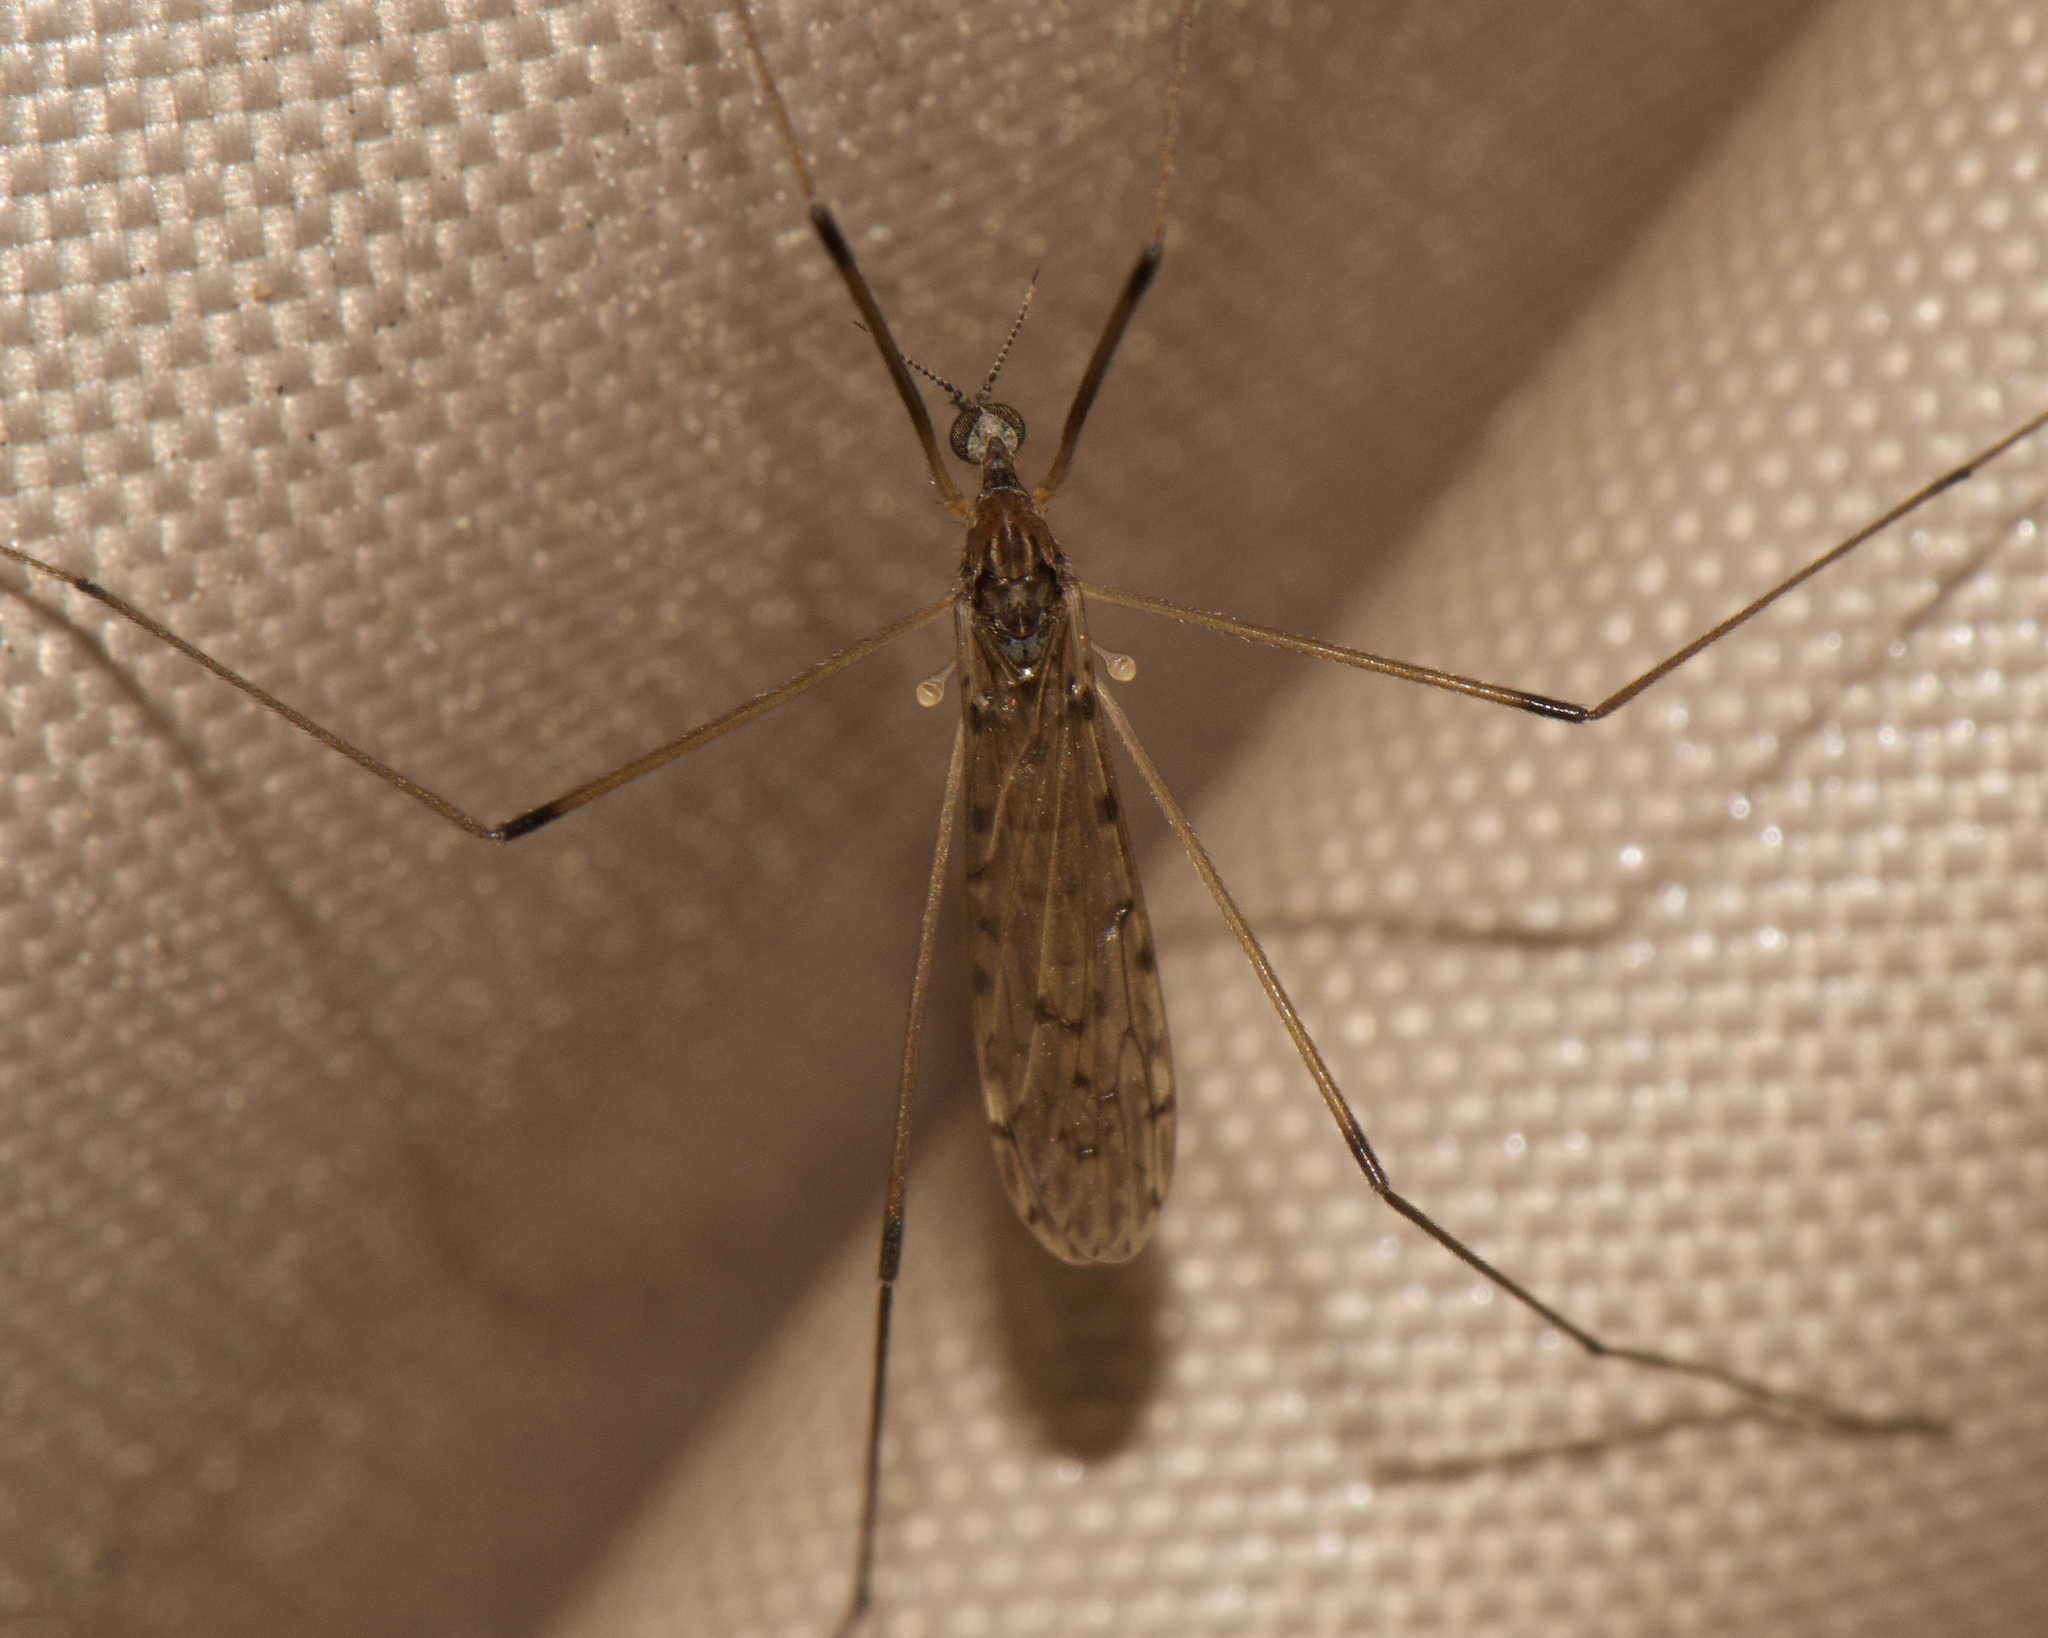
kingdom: Animalia
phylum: Arthropoda
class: Insecta
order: Diptera
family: Limoniidae
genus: Rhipidia
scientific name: Rhipidia domestica
